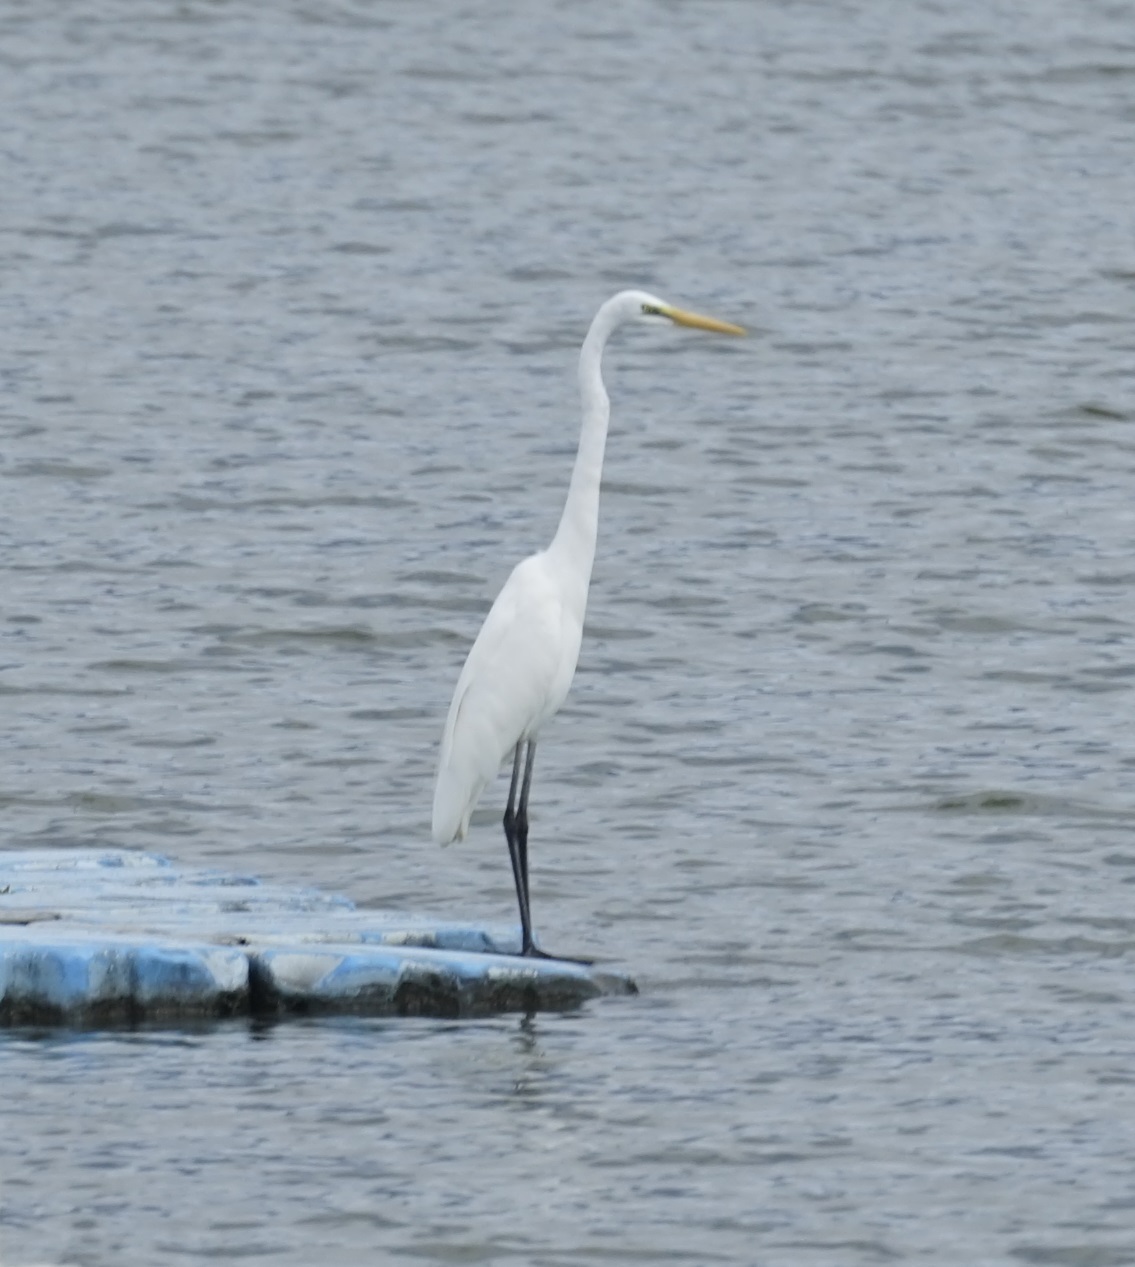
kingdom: Animalia
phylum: Chordata
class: Aves
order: Pelecaniformes
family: Ardeidae
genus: Ardea
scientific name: Ardea alba
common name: Great egret
